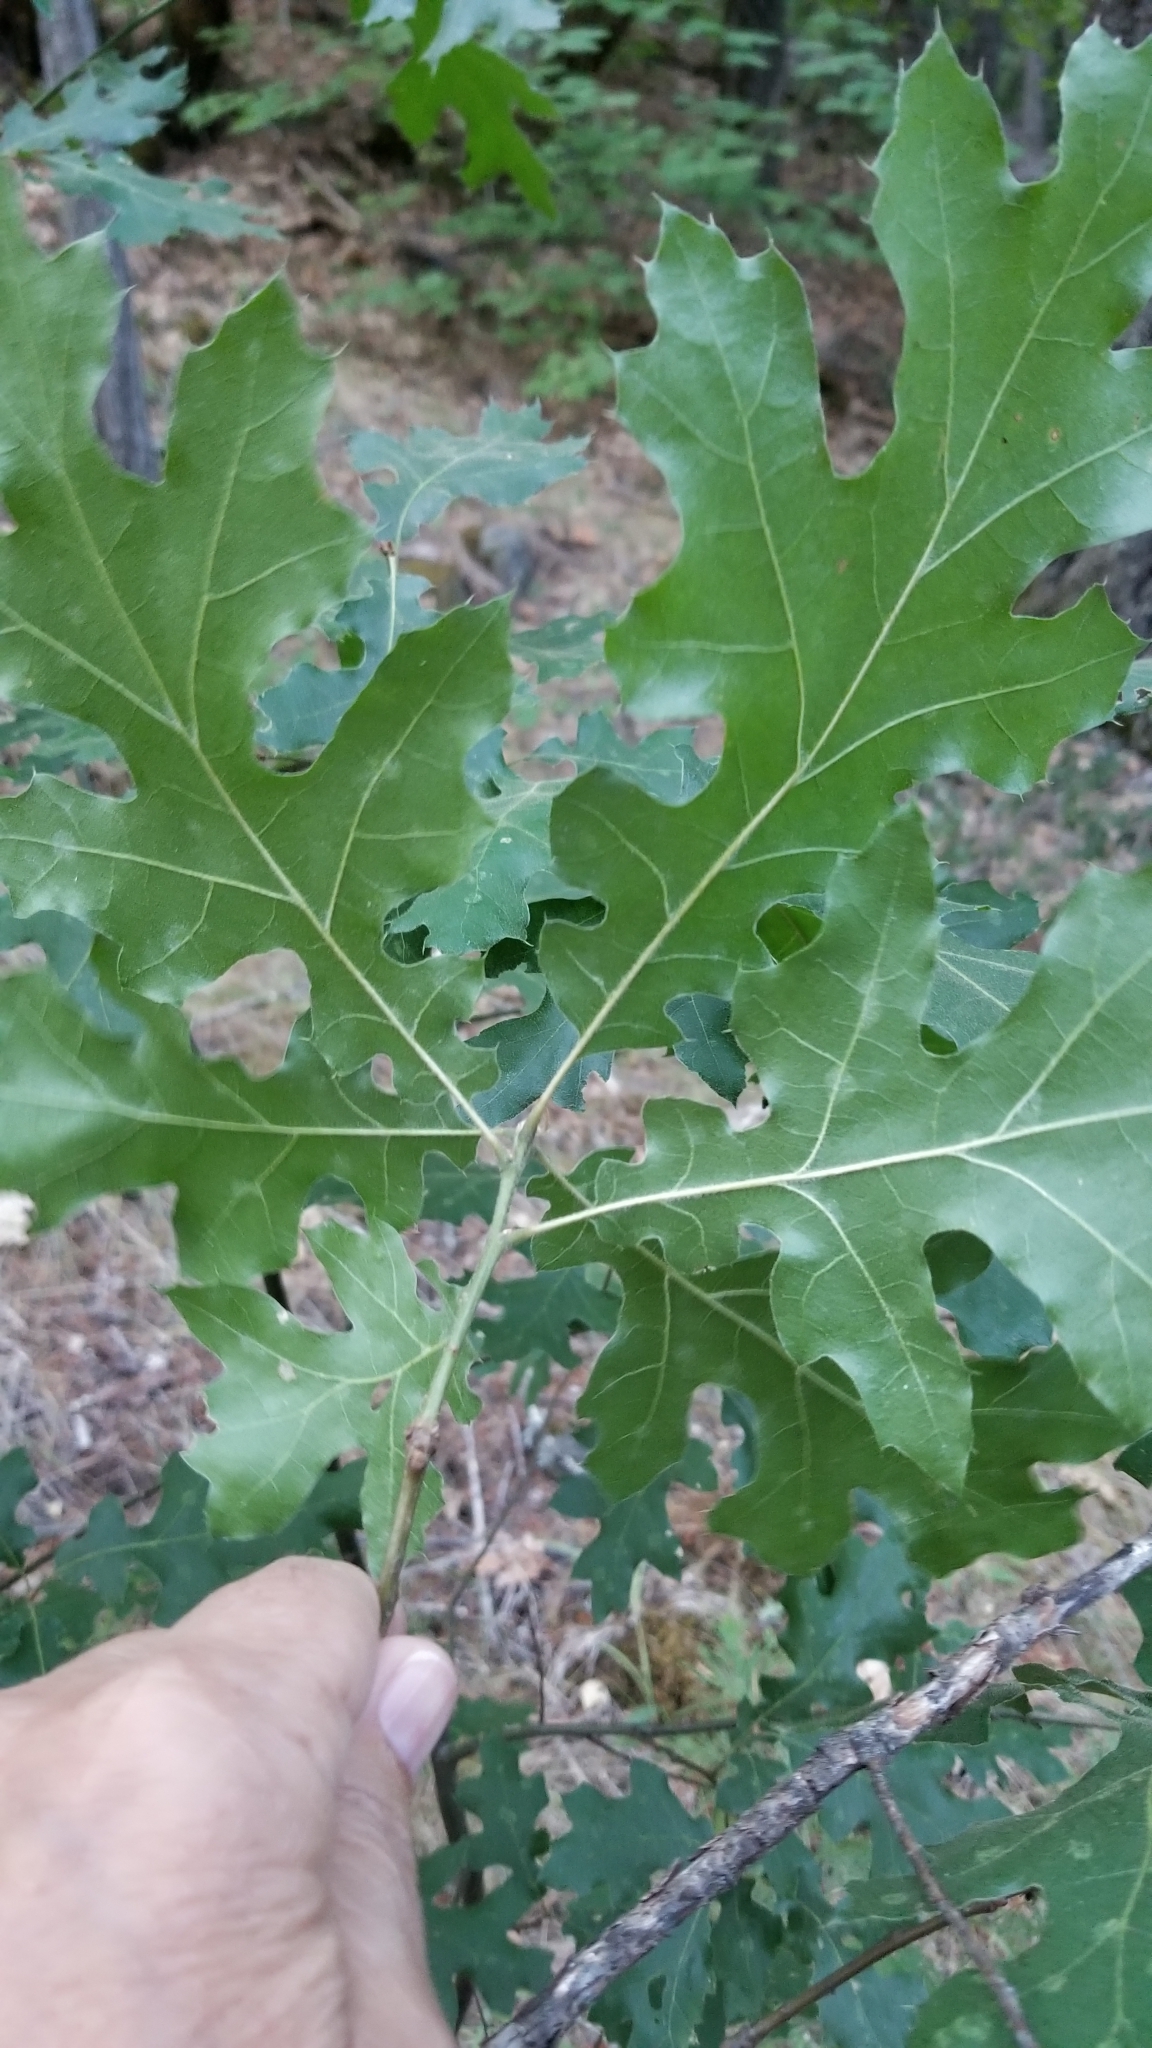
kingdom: Plantae
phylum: Tracheophyta
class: Magnoliopsida
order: Fagales
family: Fagaceae
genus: Quercus
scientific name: Quercus kelloggii
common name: California black oak
